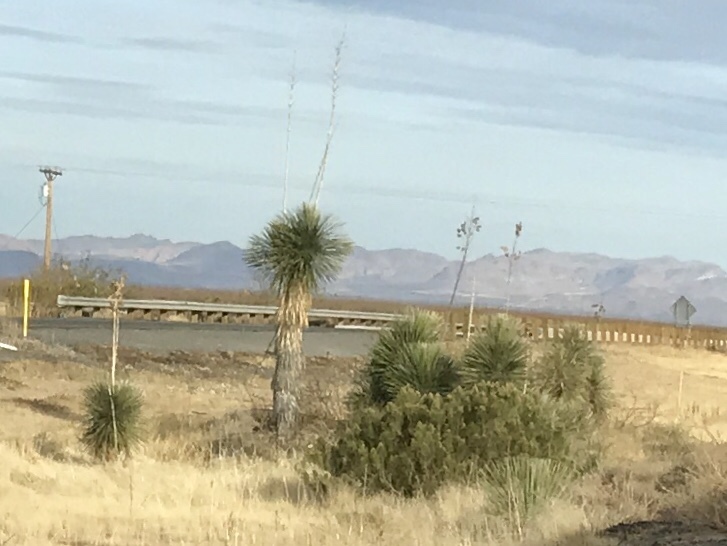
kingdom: Plantae
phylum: Tracheophyta
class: Liliopsida
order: Asparagales
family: Asparagaceae
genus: Yucca
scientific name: Yucca elata
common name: Palmella
